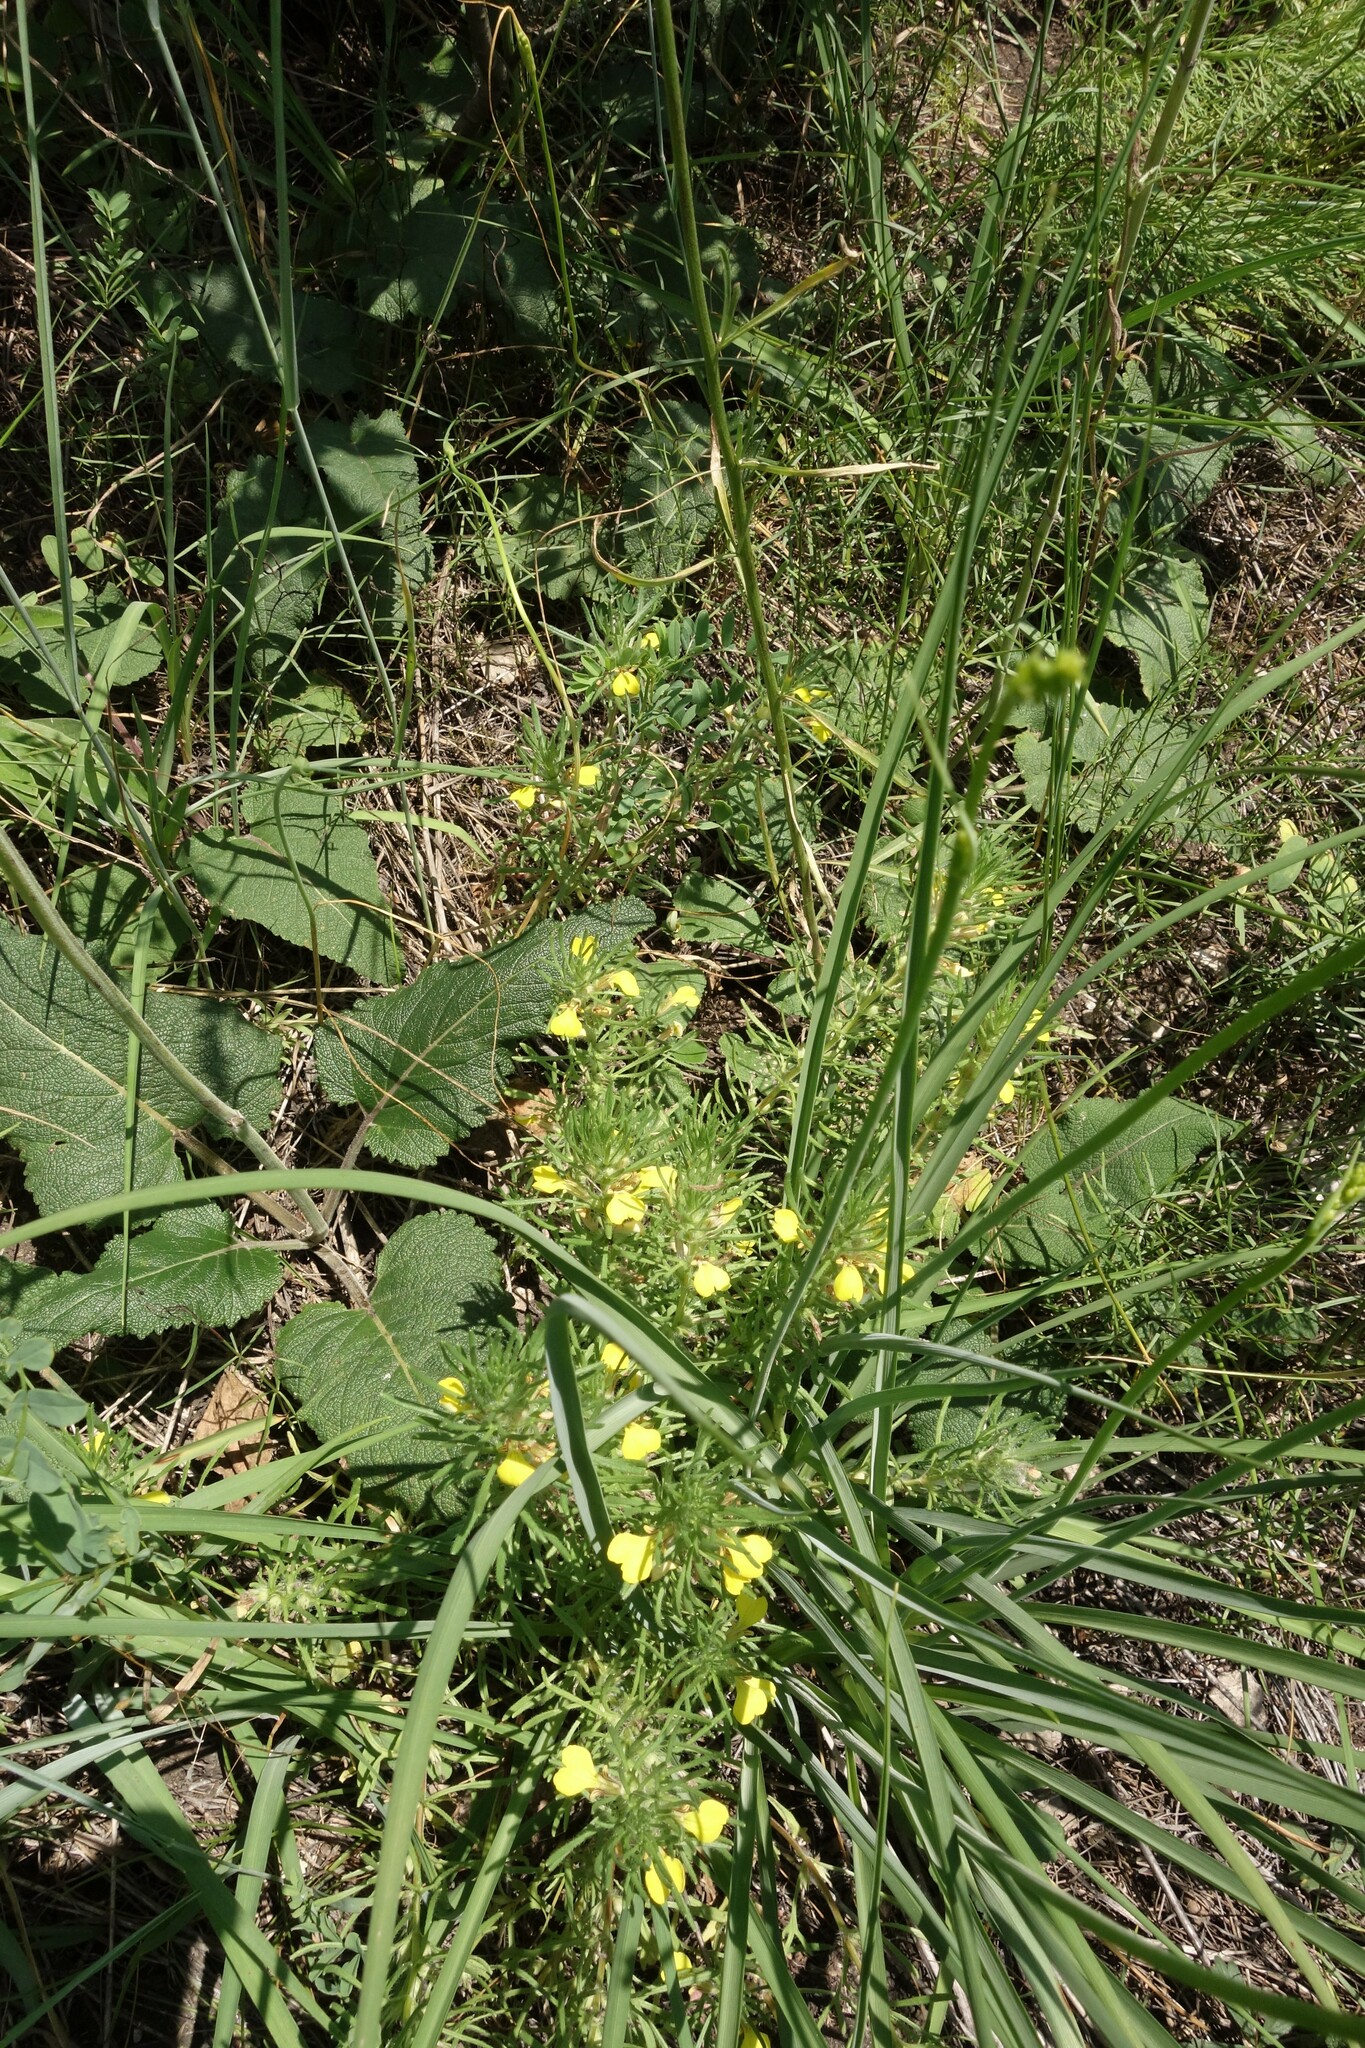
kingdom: Plantae
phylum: Tracheophyta
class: Magnoliopsida
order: Lamiales
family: Lamiaceae
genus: Ajuga
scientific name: Ajuga chamaepitys
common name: Ground-pine
